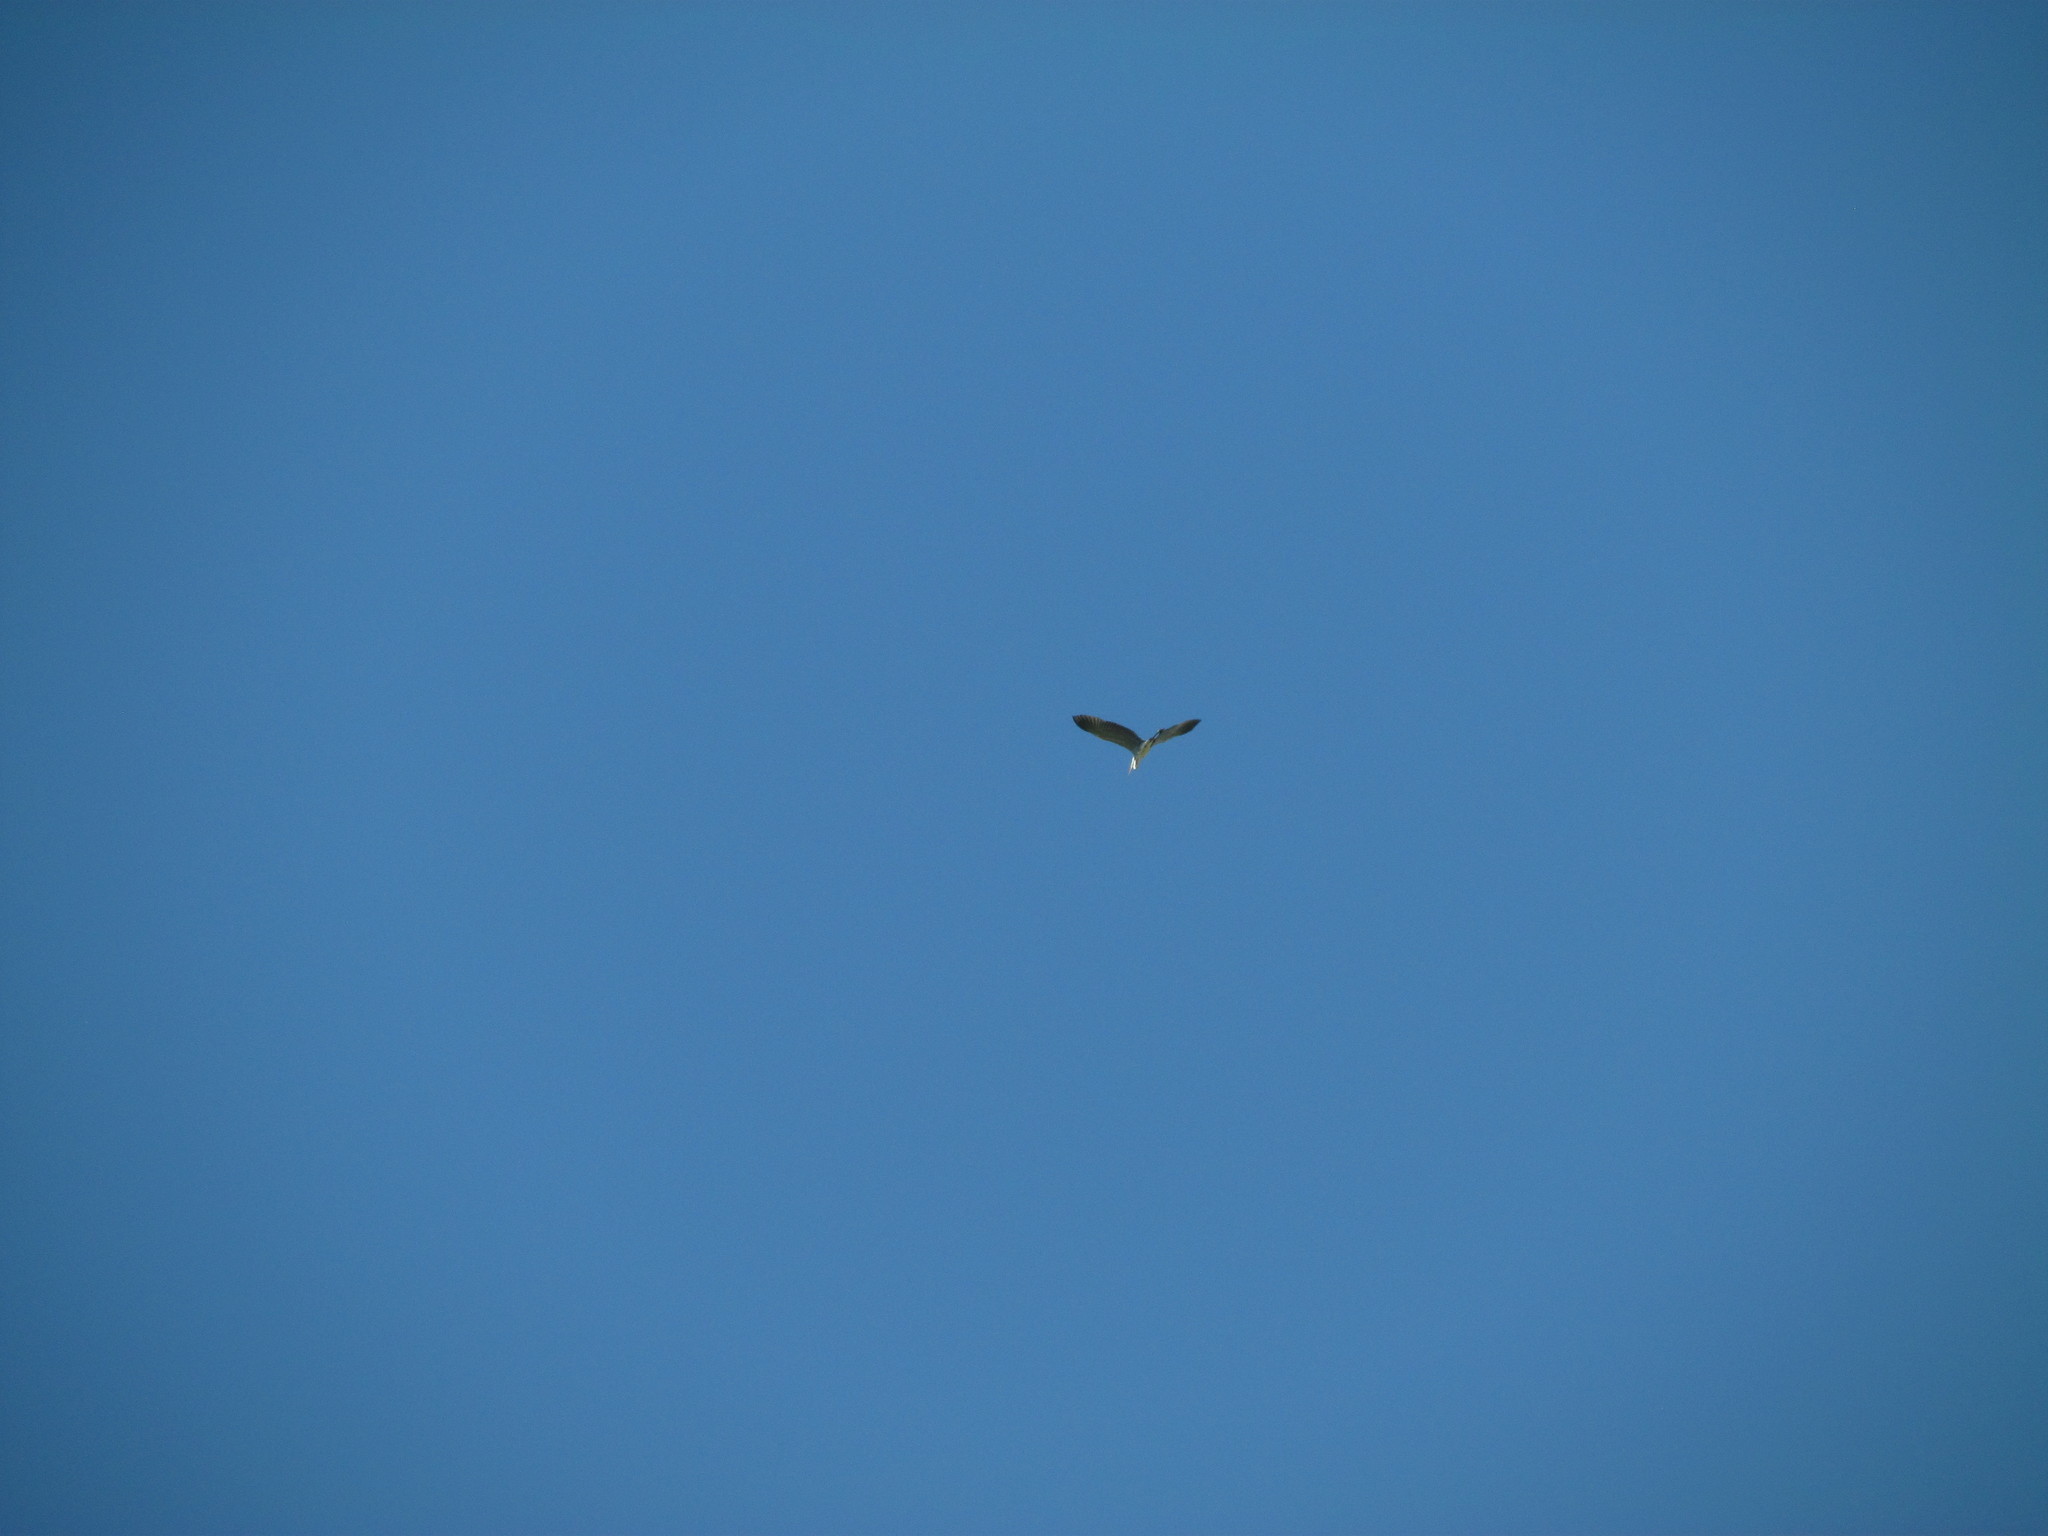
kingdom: Animalia
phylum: Chordata
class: Aves
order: Pelecaniformes
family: Ardeidae
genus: Ardea
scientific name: Ardea cocoi
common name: Cocoi heron
